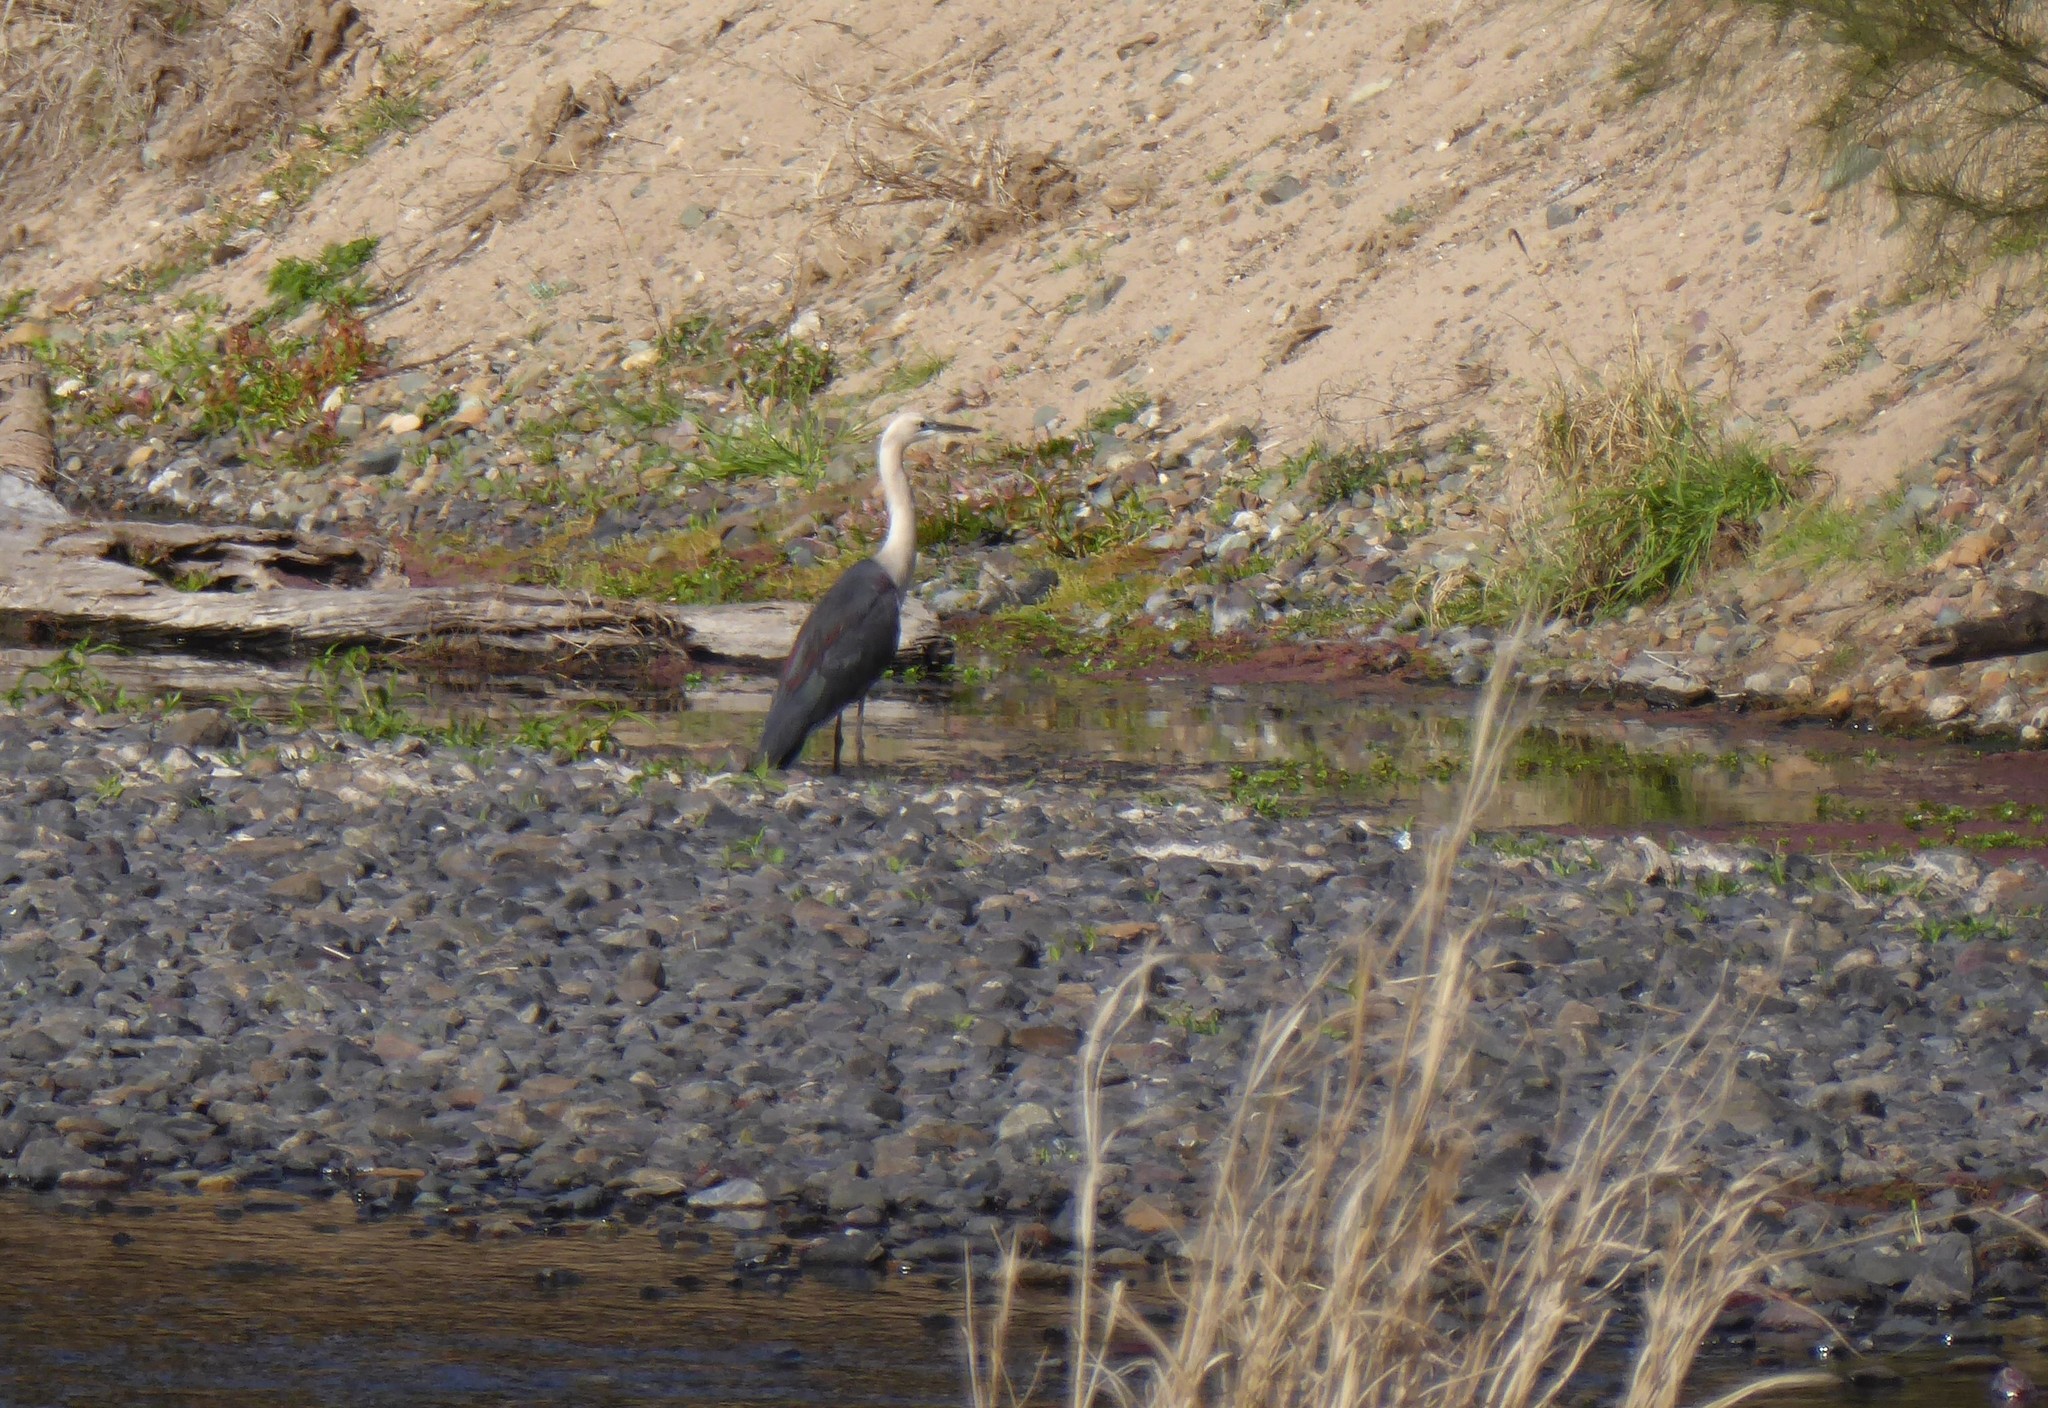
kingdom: Animalia
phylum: Chordata
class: Aves
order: Pelecaniformes
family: Ardeidae
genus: Ardea
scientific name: Ardea pacifica
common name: White-necked heron
